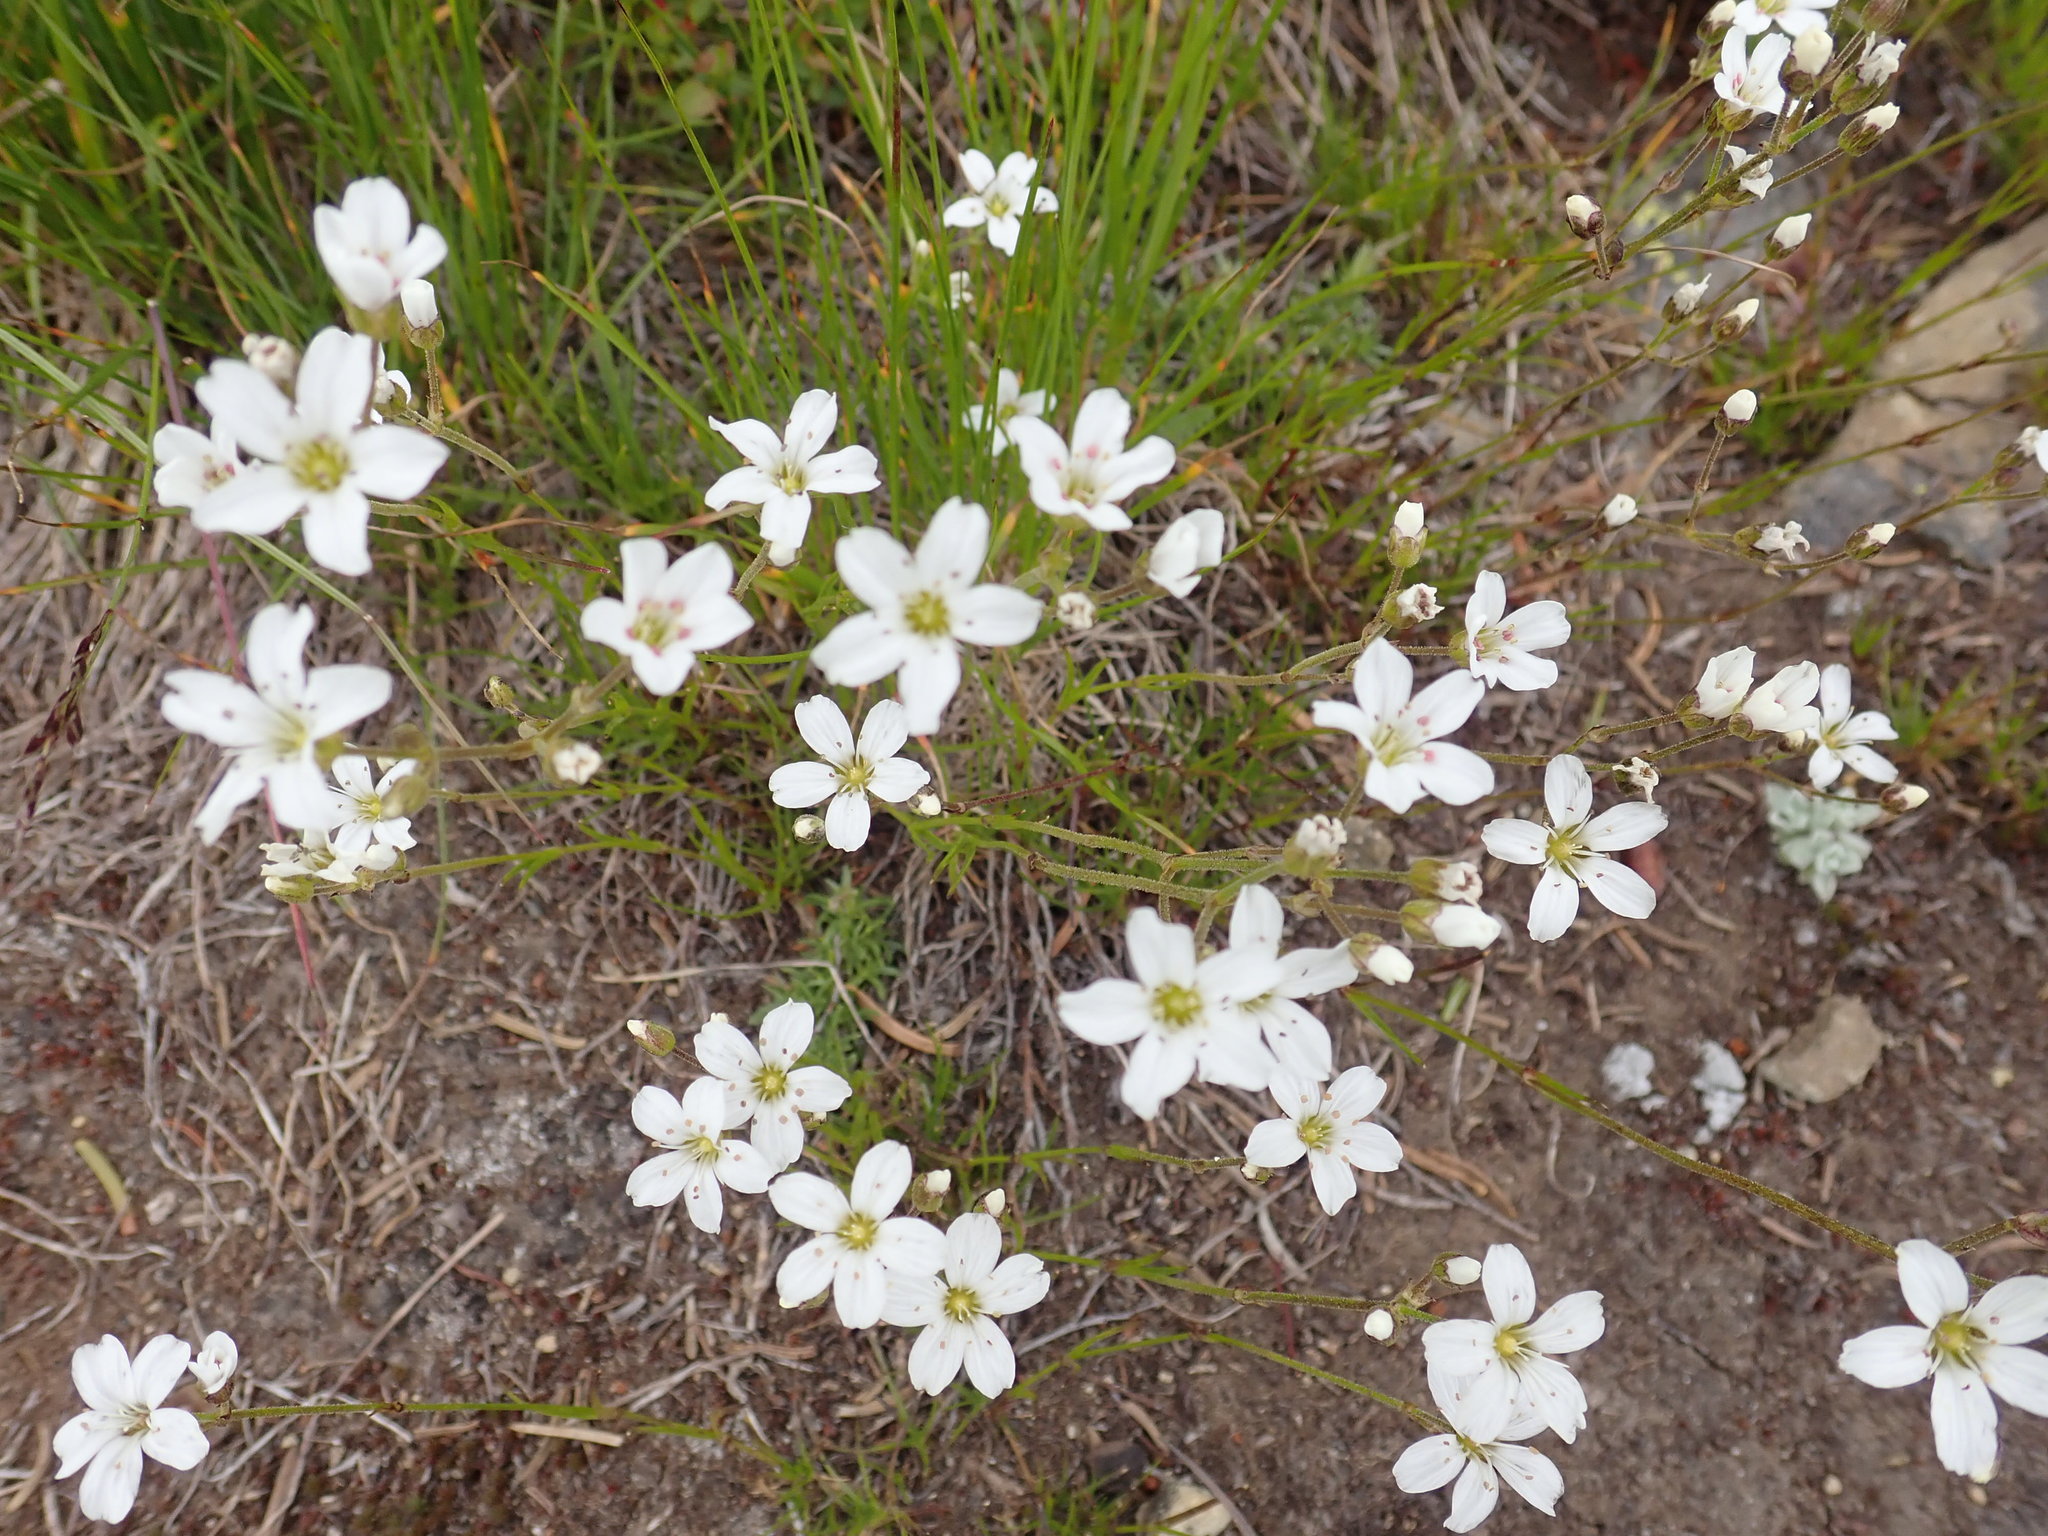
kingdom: Plantae
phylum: Tracheophyta
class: Magnoliopsida
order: Caryophyllales
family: Caryophyllaceae
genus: Eremogone
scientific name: Eremogone capillaris
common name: Slender mountain sandwort
